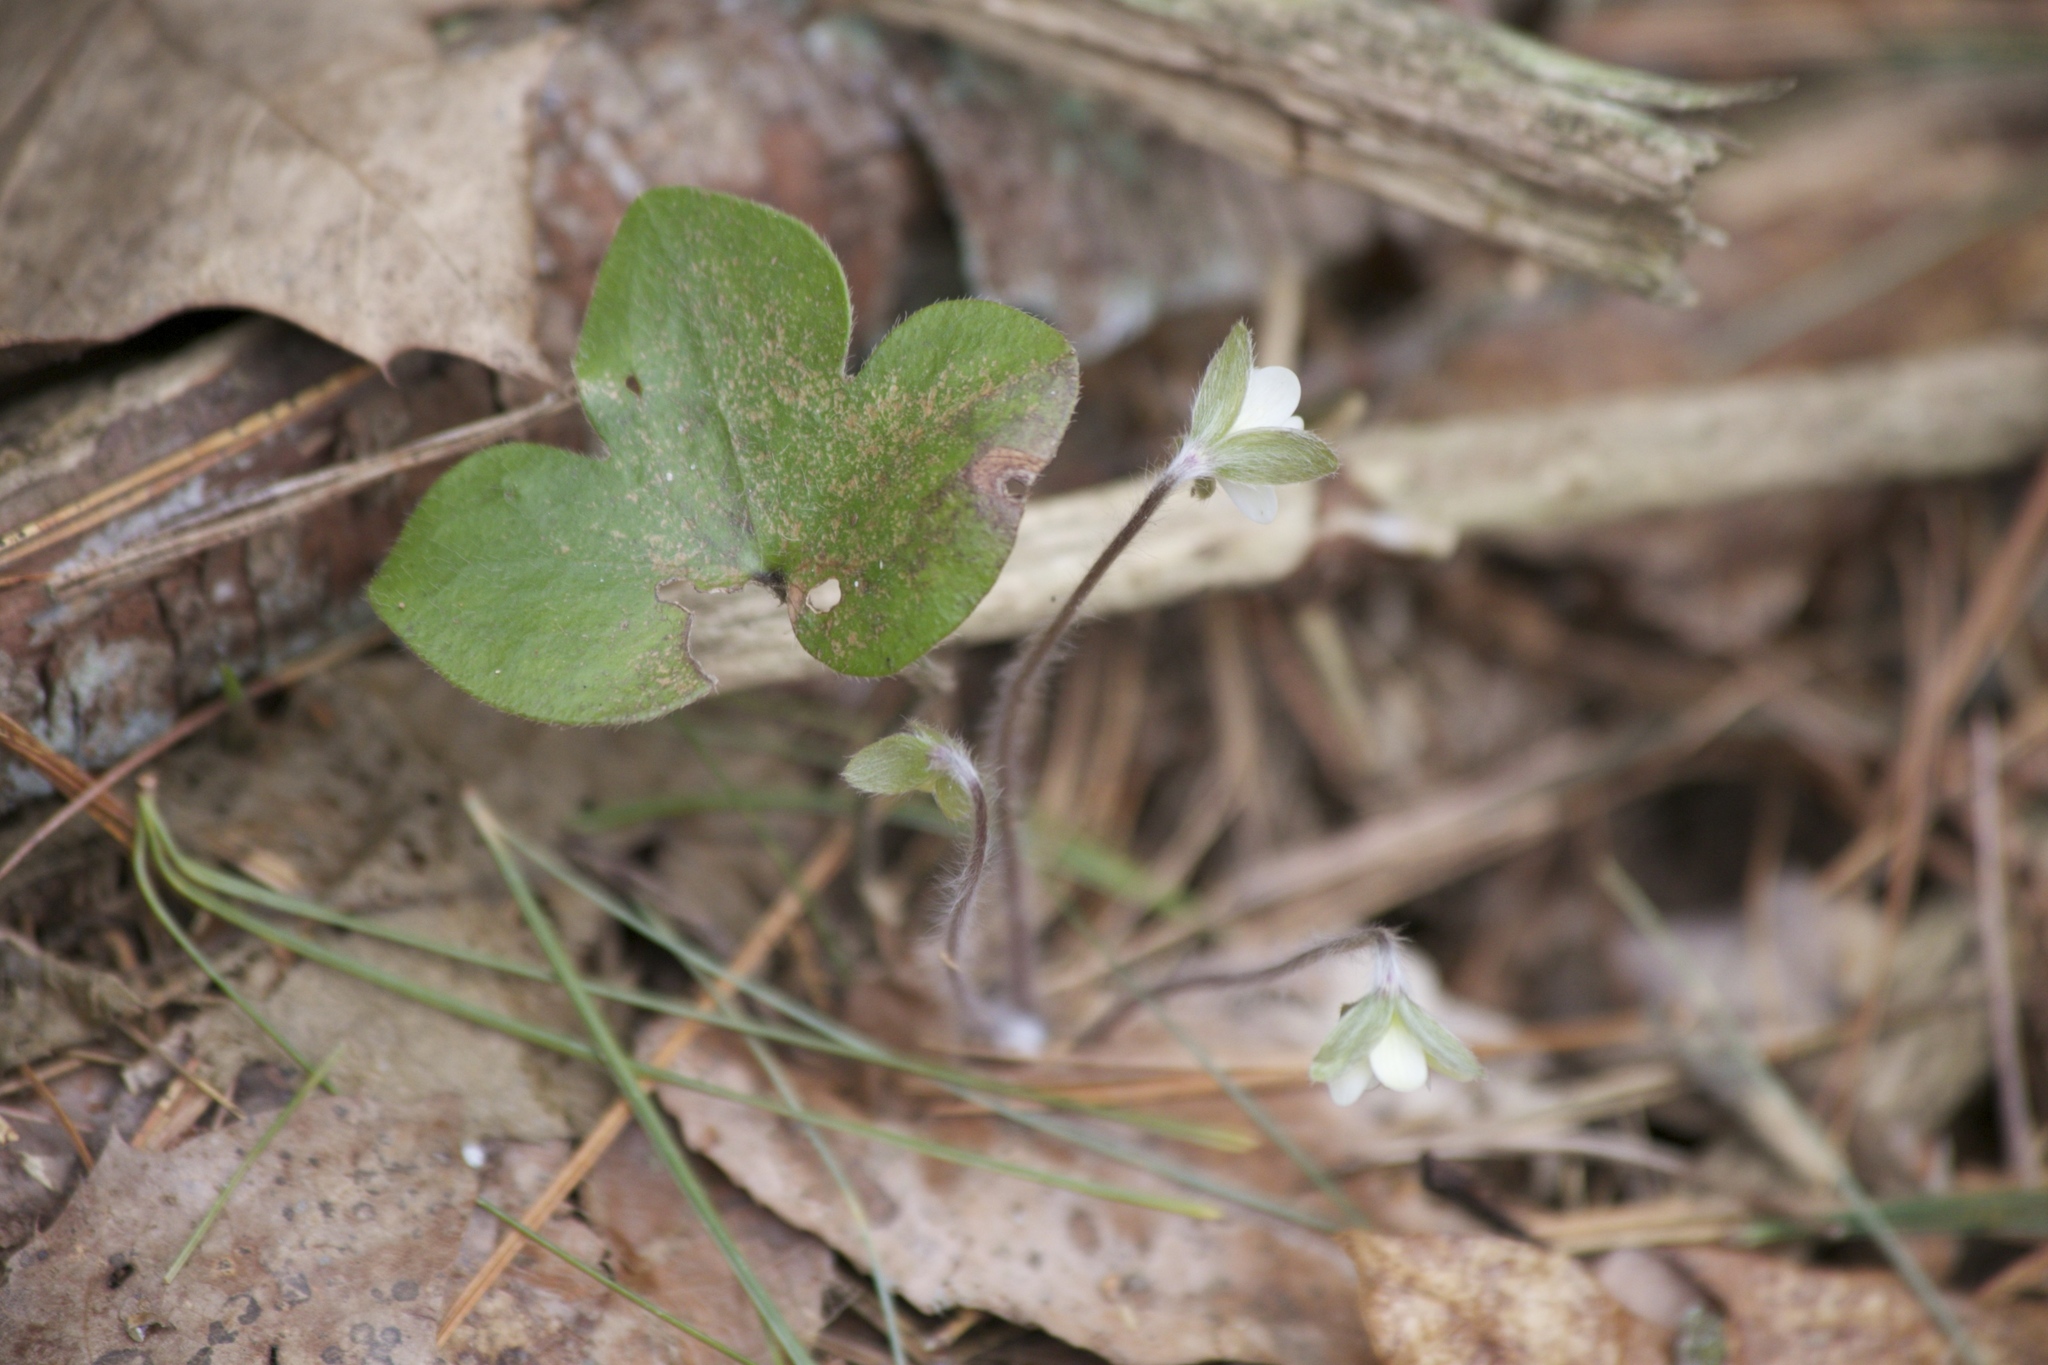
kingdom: Plantae
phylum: Tracheophyta
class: Magnoliopsida
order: Ranunculales
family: Ranunculaceae
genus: Hepatica
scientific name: Hepatica americana
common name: American hepatica
